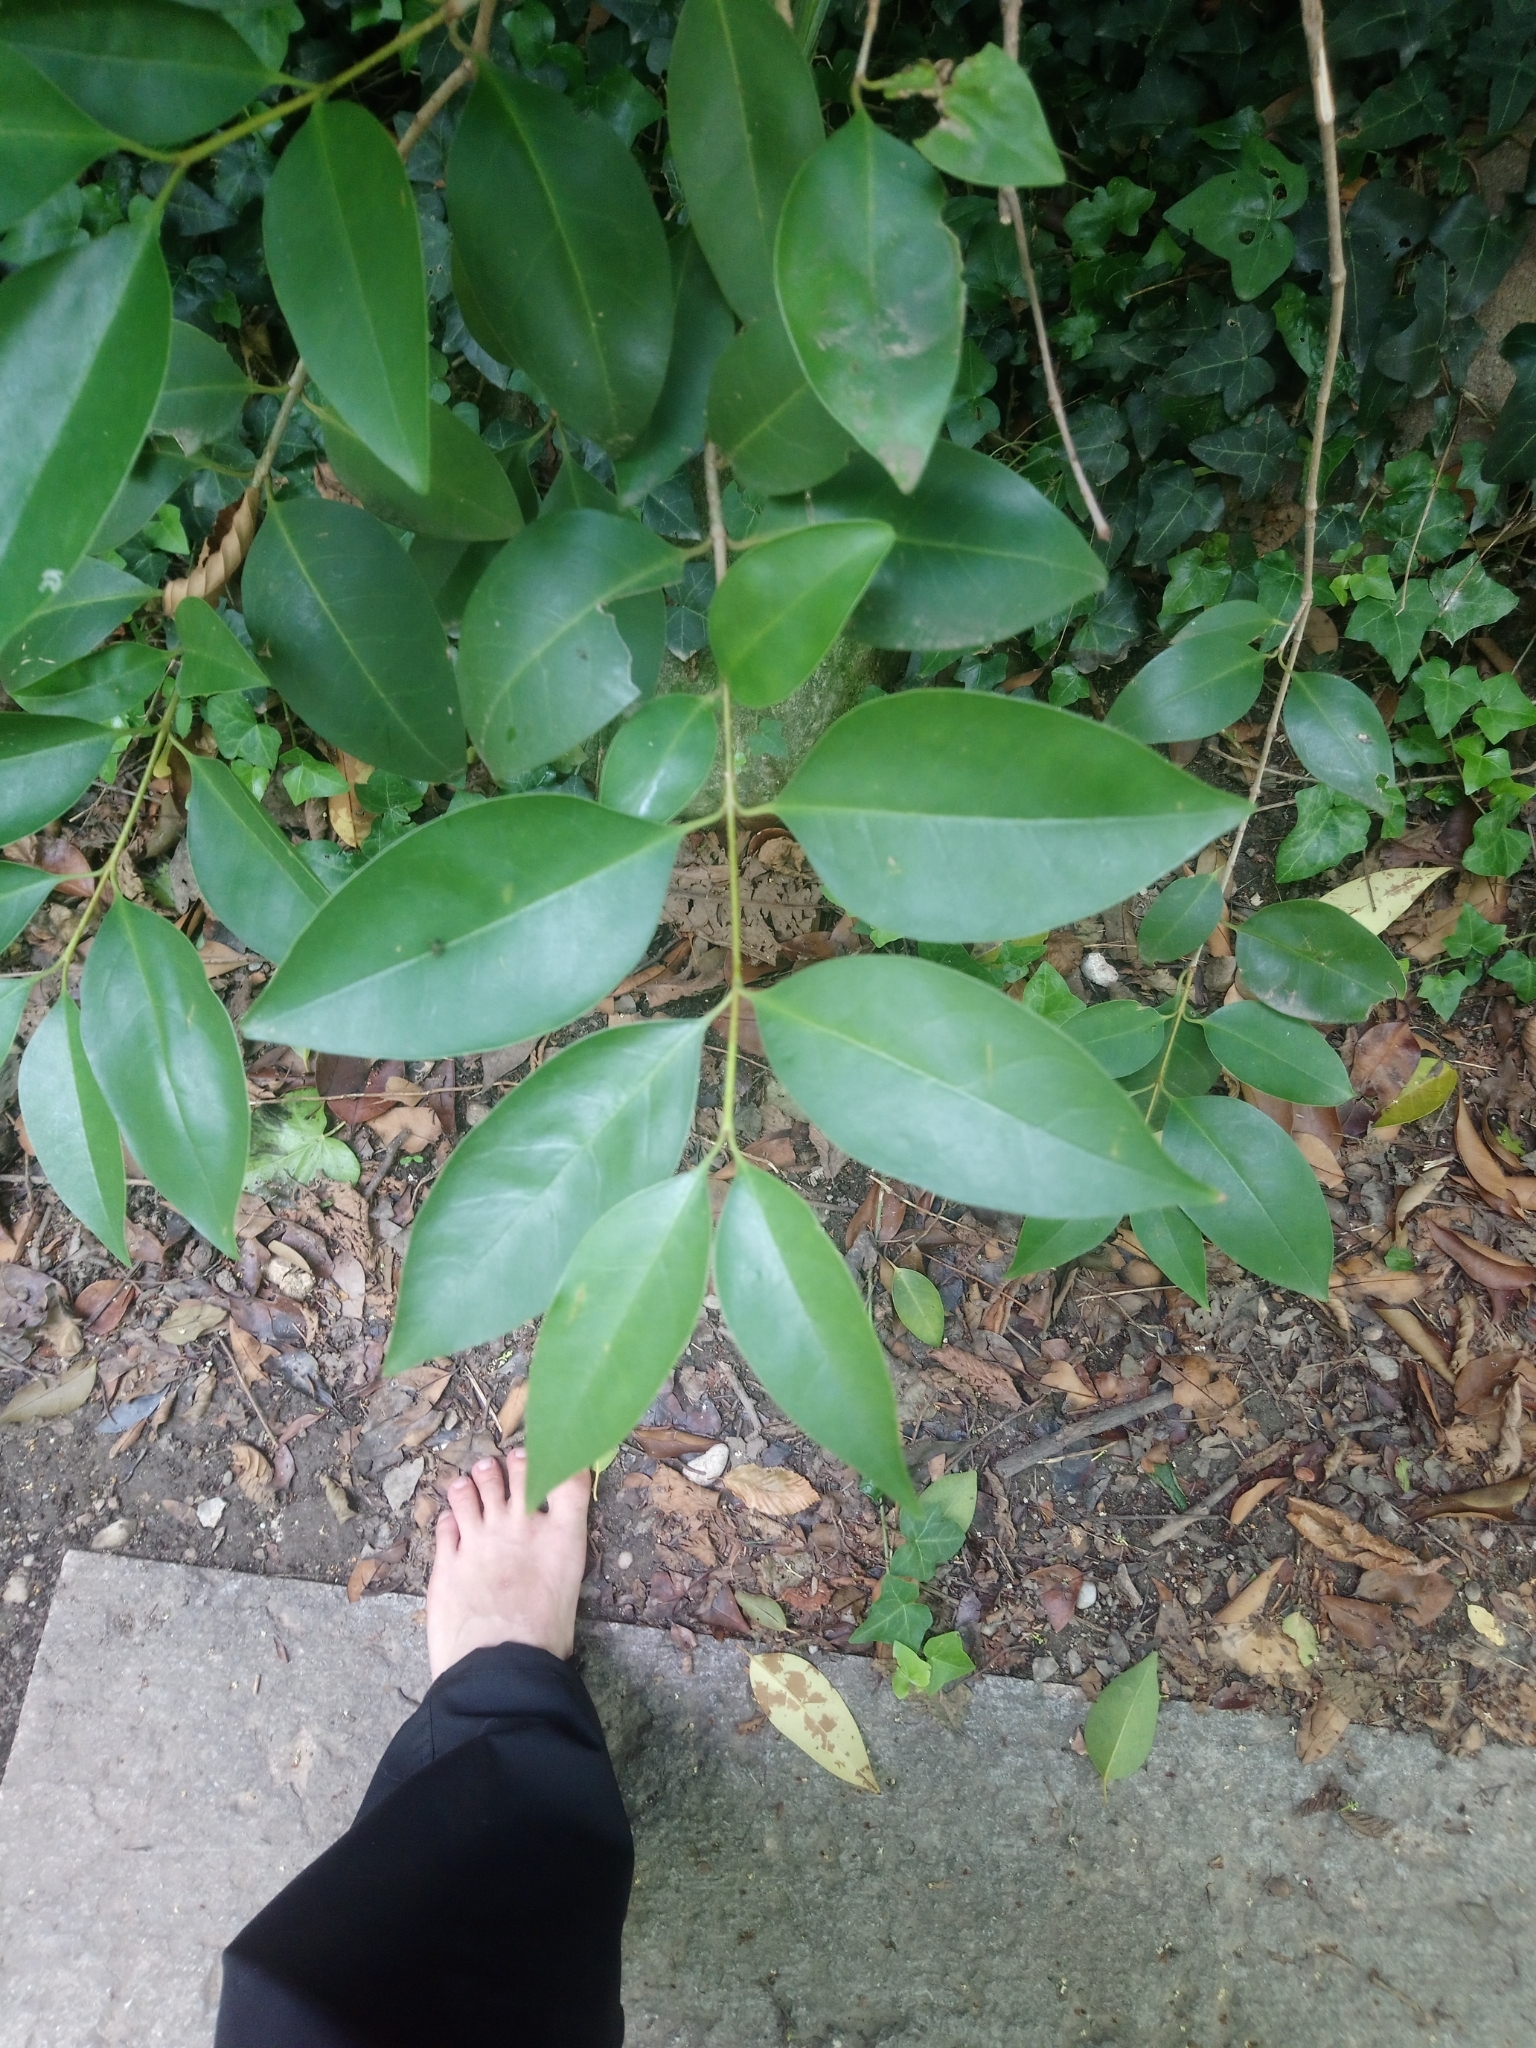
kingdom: Plantae
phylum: Tracheophyta
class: Magnoliopsida
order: Lamiales
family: Oleaceae
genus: Ligustrum
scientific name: Ligustrum lucidum
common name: Glossy privet
